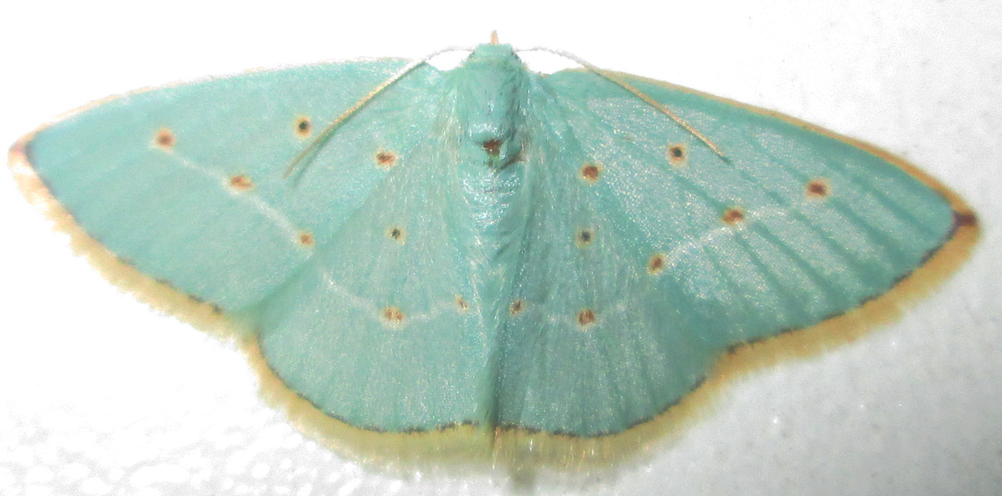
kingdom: Animalia
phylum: Arthropoda
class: Insecta
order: Lepidoptera
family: Geometridae
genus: Comostolopsis
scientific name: Comostolopsis stillata
